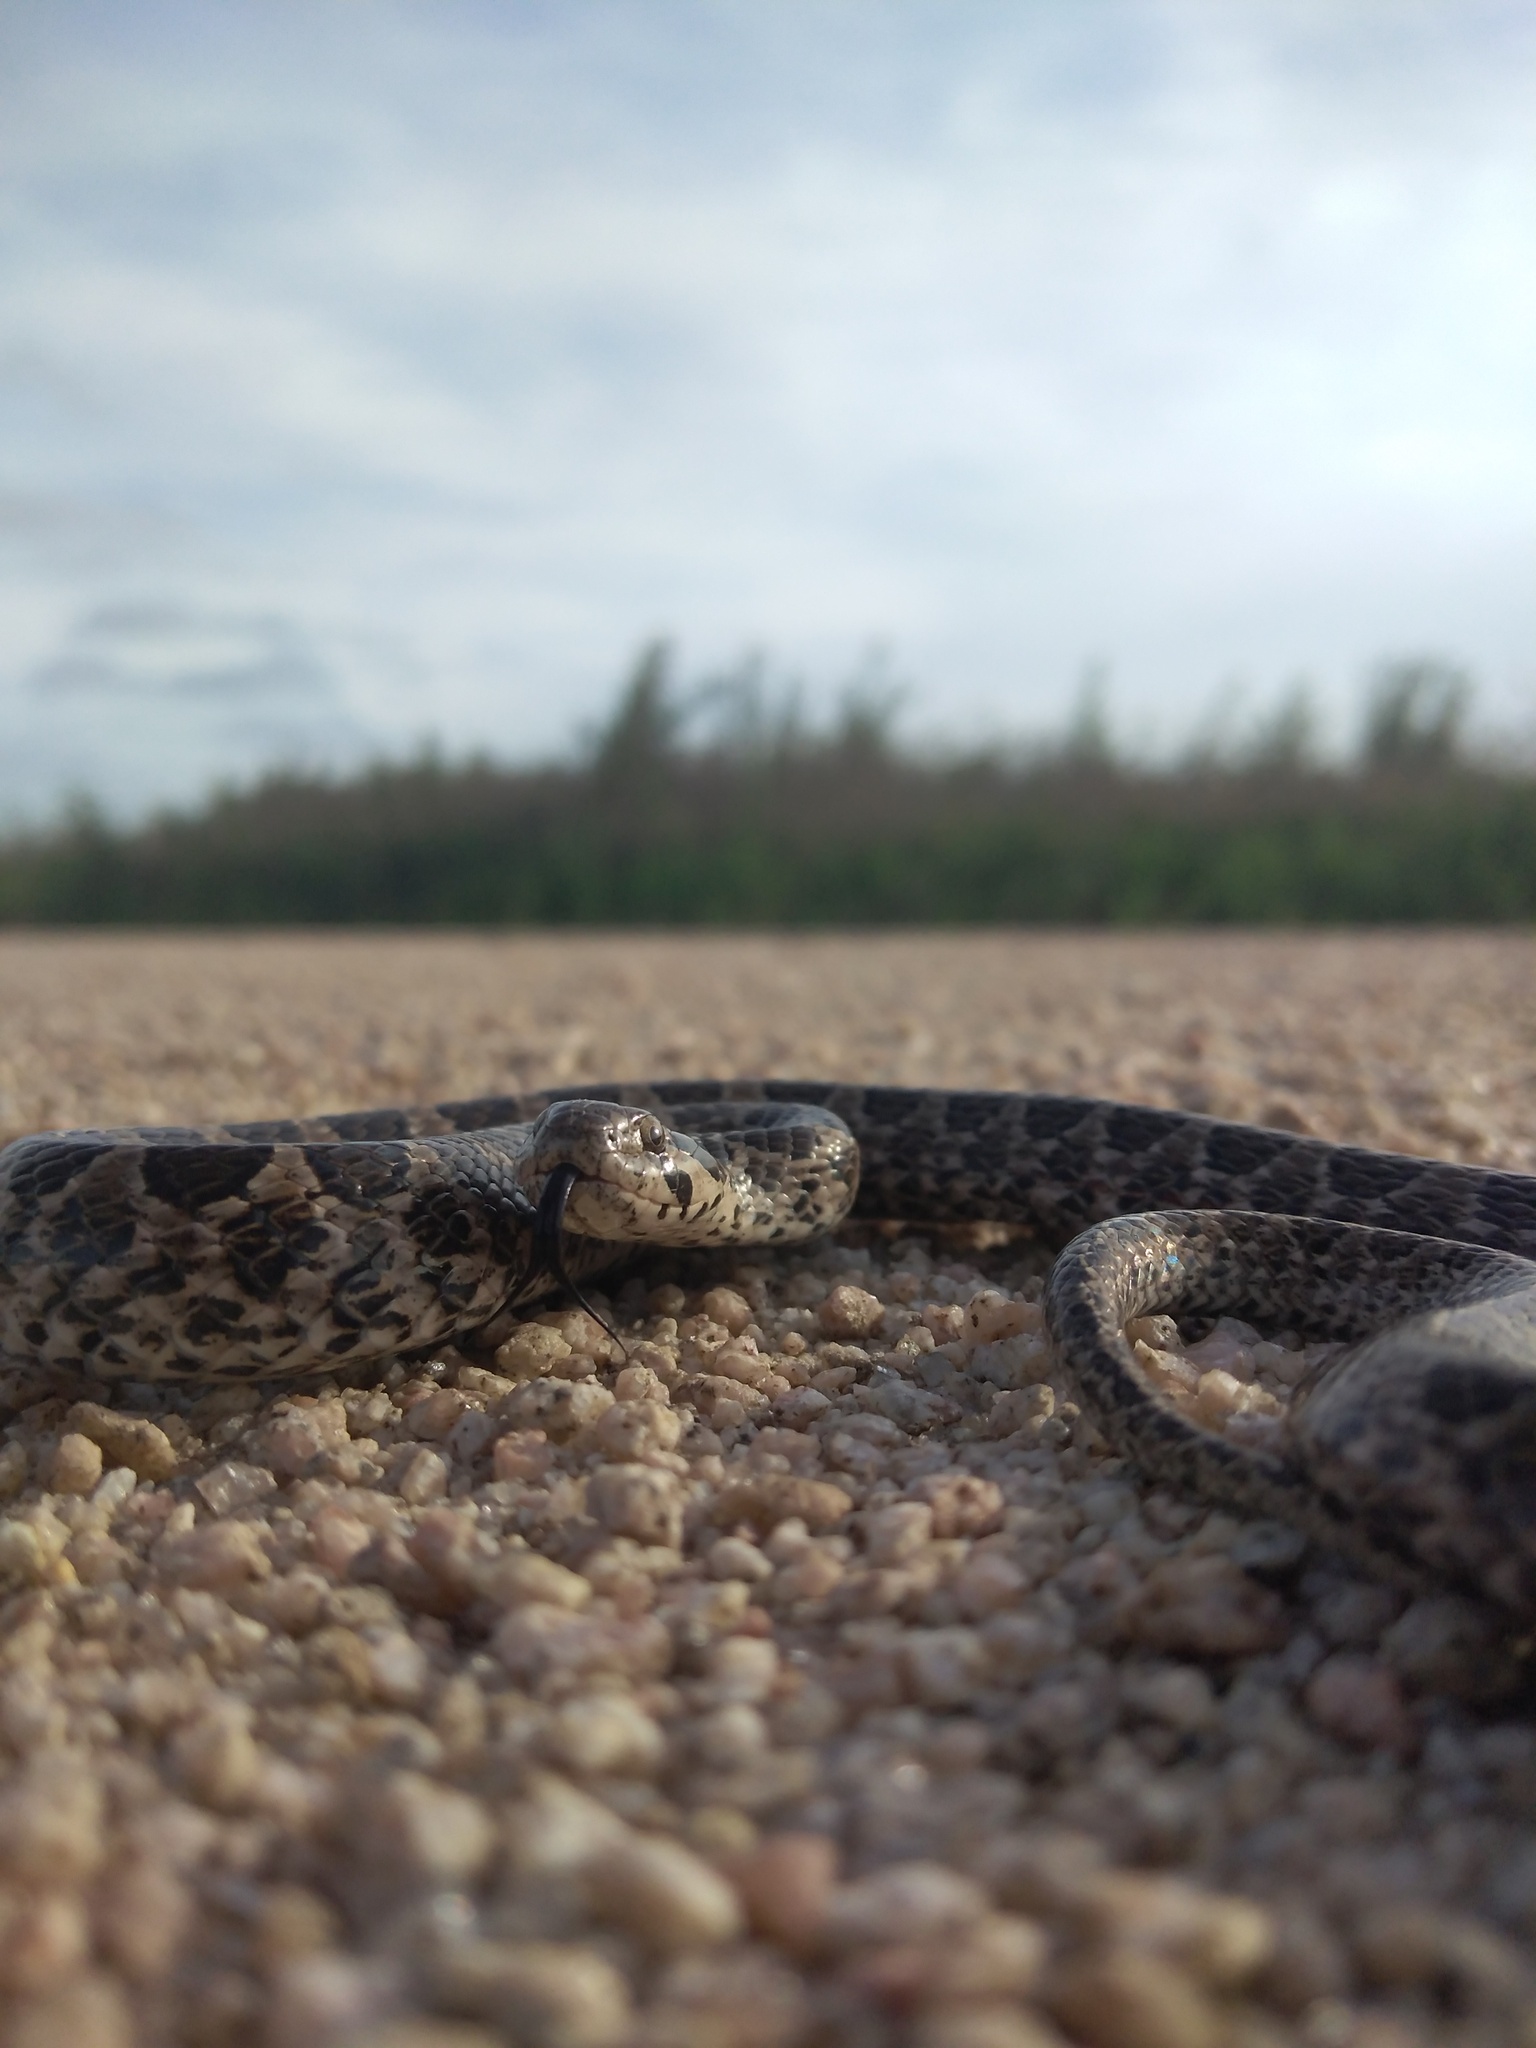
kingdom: Animalia
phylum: Chordata
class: Squamata
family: Colubridae
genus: Tachymenis
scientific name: Tachymenis
